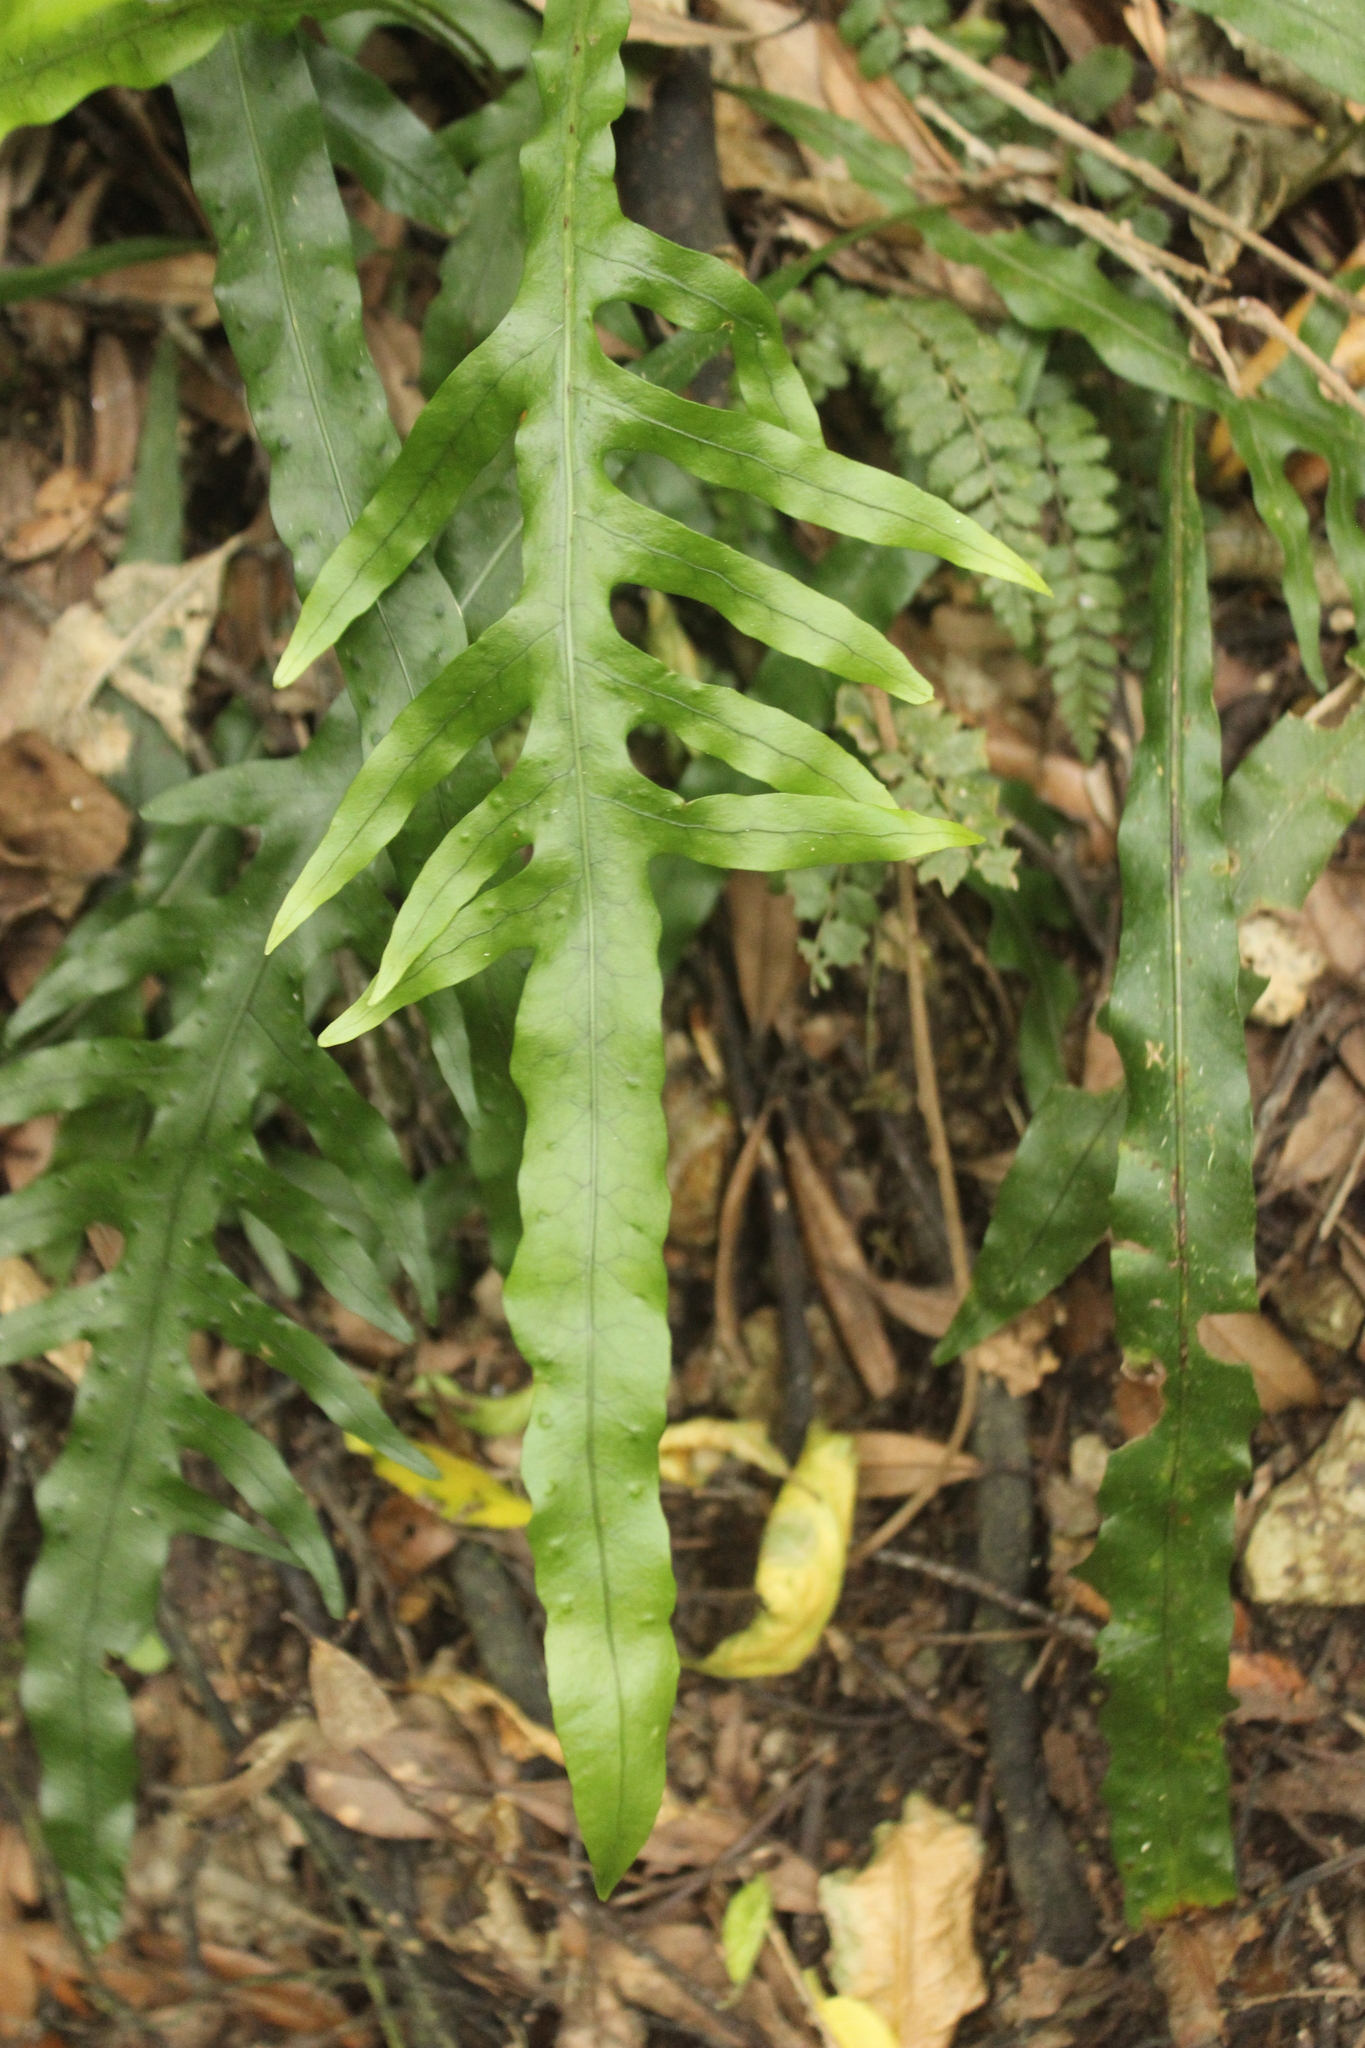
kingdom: Plantae
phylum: Tracheophyta
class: Polypodiopsida
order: Polypodiales
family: Polypodiaceae
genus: Lecanopteris
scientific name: Lecanopteris scandens
